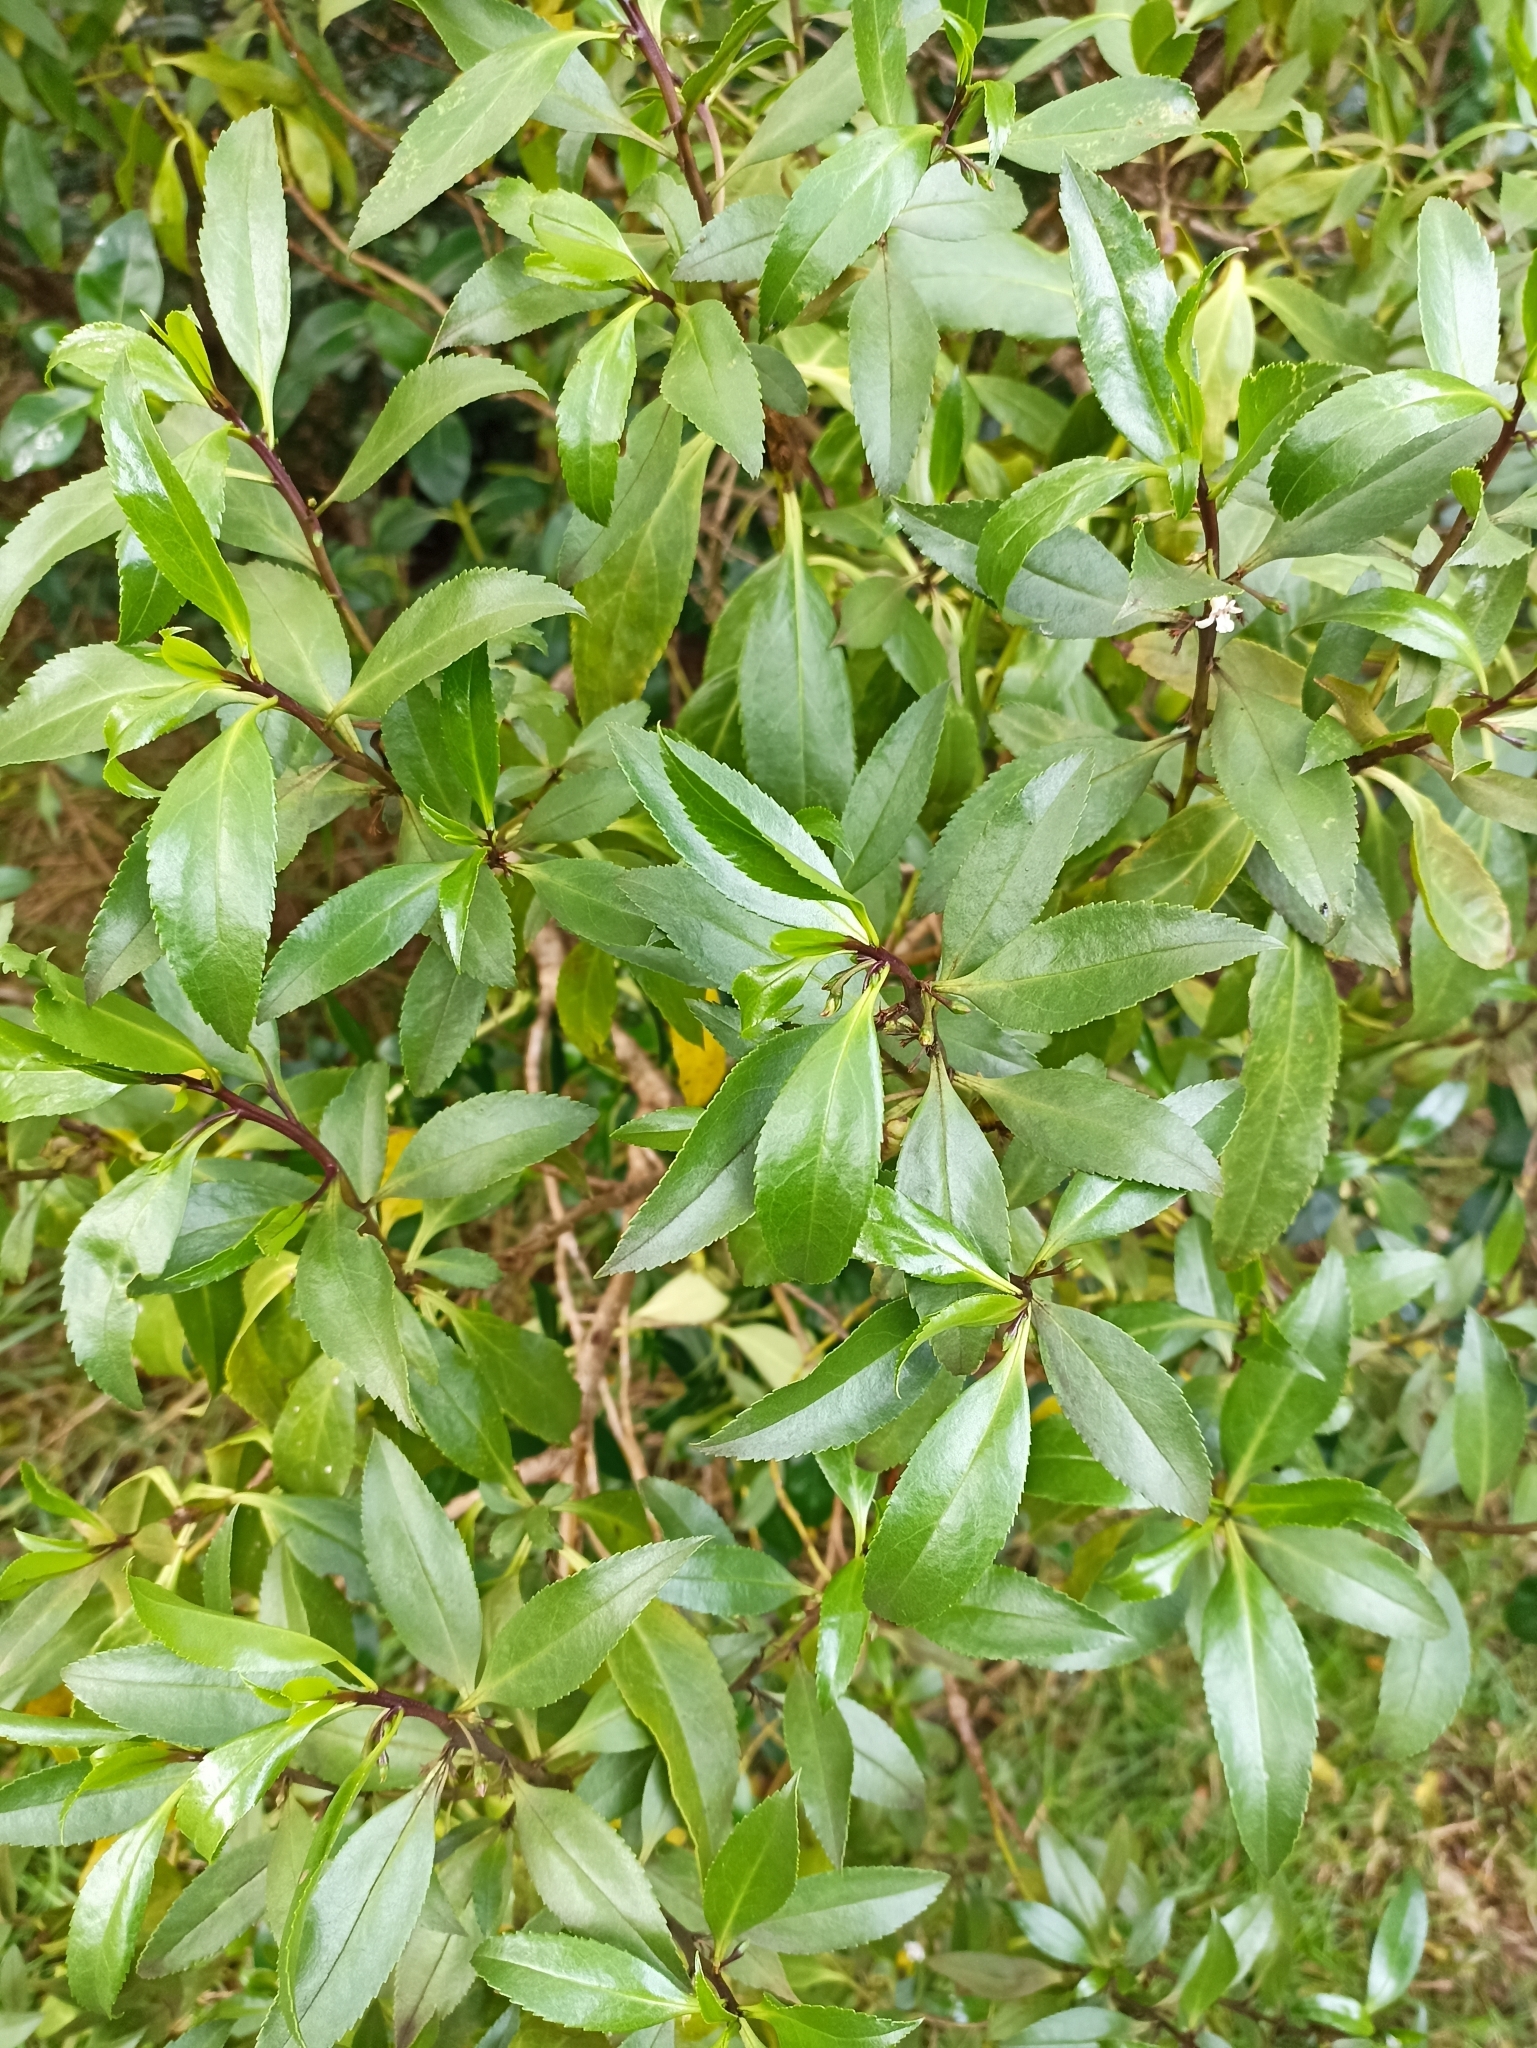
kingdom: Plantae
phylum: Tracheophyta
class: Magnoliopsida
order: Lamiales
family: Scrophulariaceae
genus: Myoporum
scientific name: Myoporum
